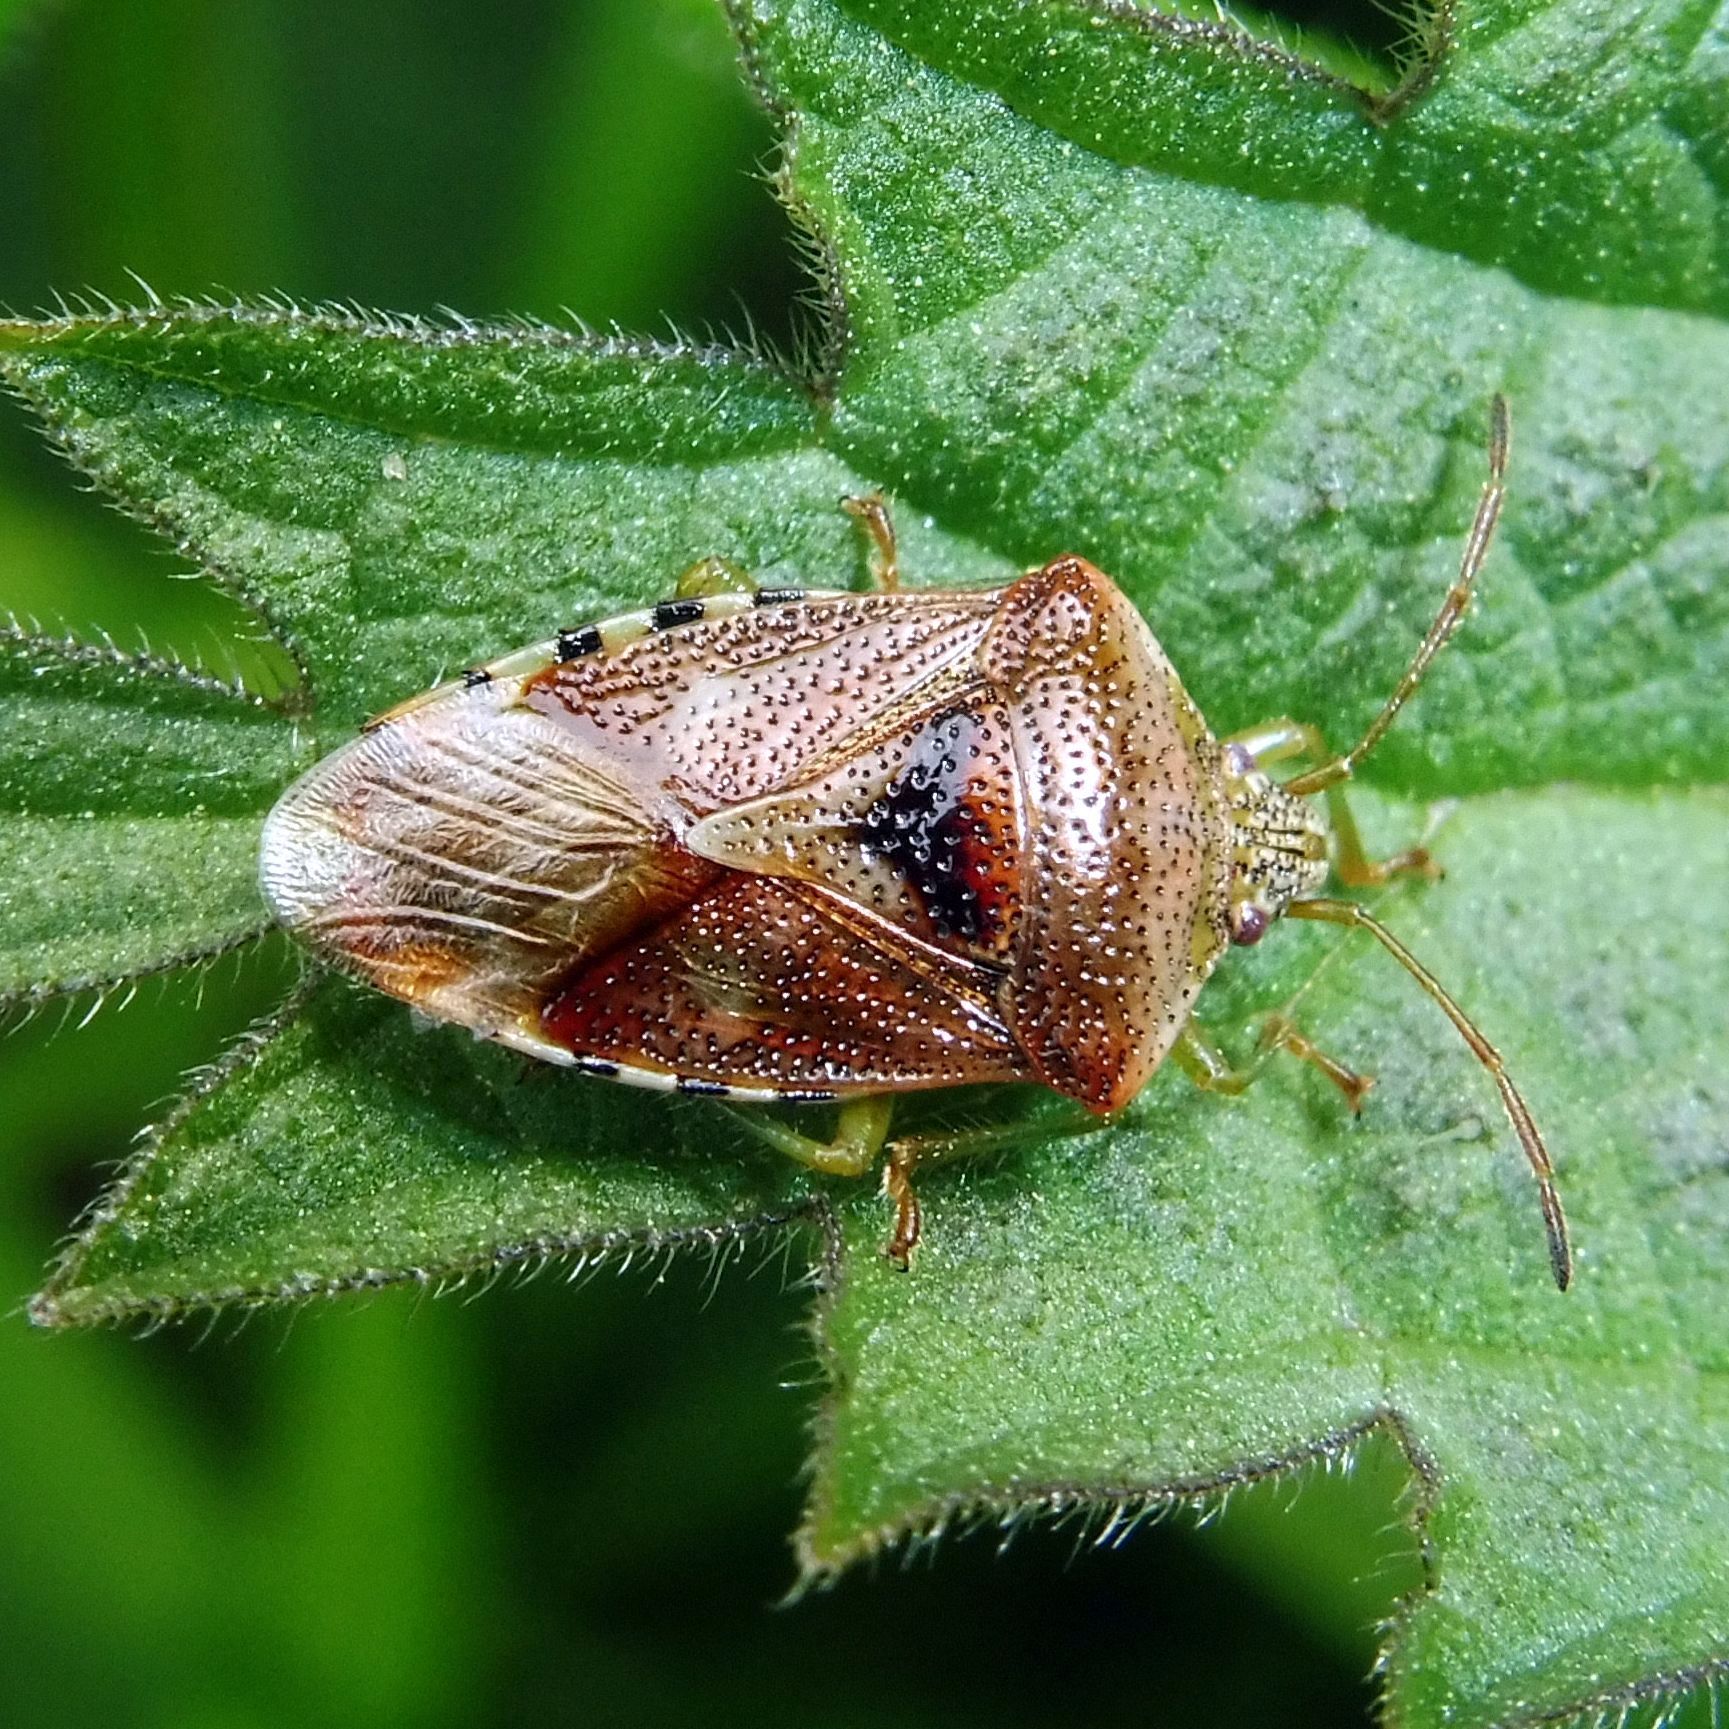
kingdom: Animalia
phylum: Arthropoda
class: Insecta
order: Hemiptera
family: Acanthosomatidae
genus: Elasmucha
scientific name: Elasmucha grisea
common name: Parent bug
